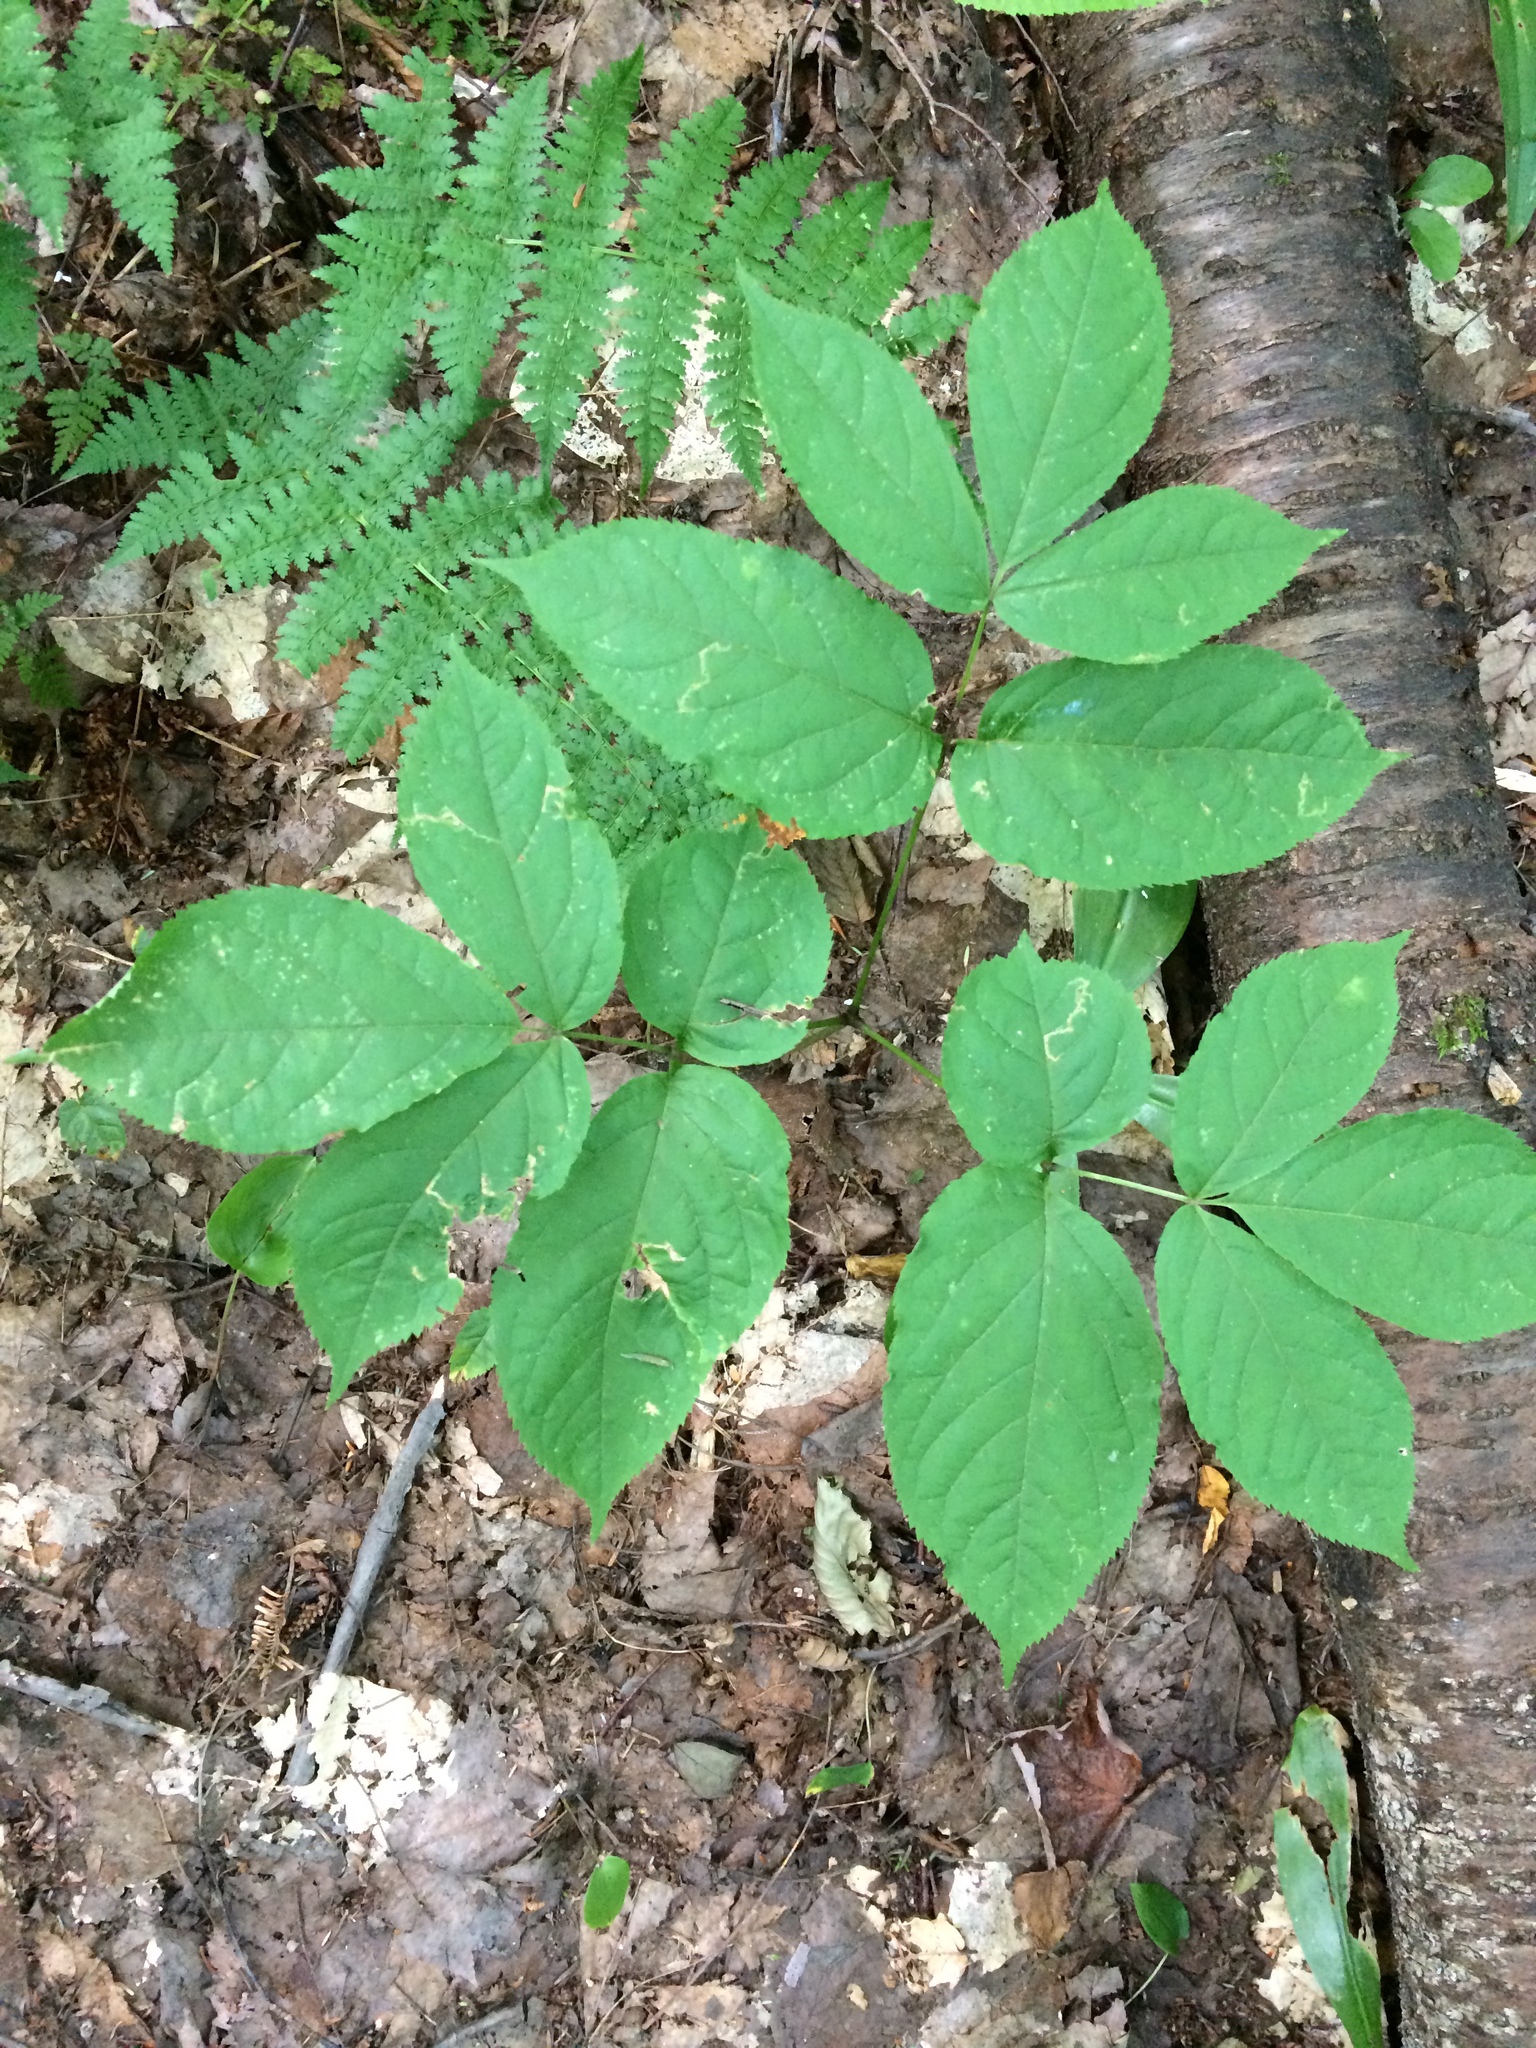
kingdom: Plantae
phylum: Tracheophyta
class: Magnoliopsida
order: Apiales
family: Araliaceae
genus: Aralia
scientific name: Aralia nudicaulis
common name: Wild sarsaparilla
